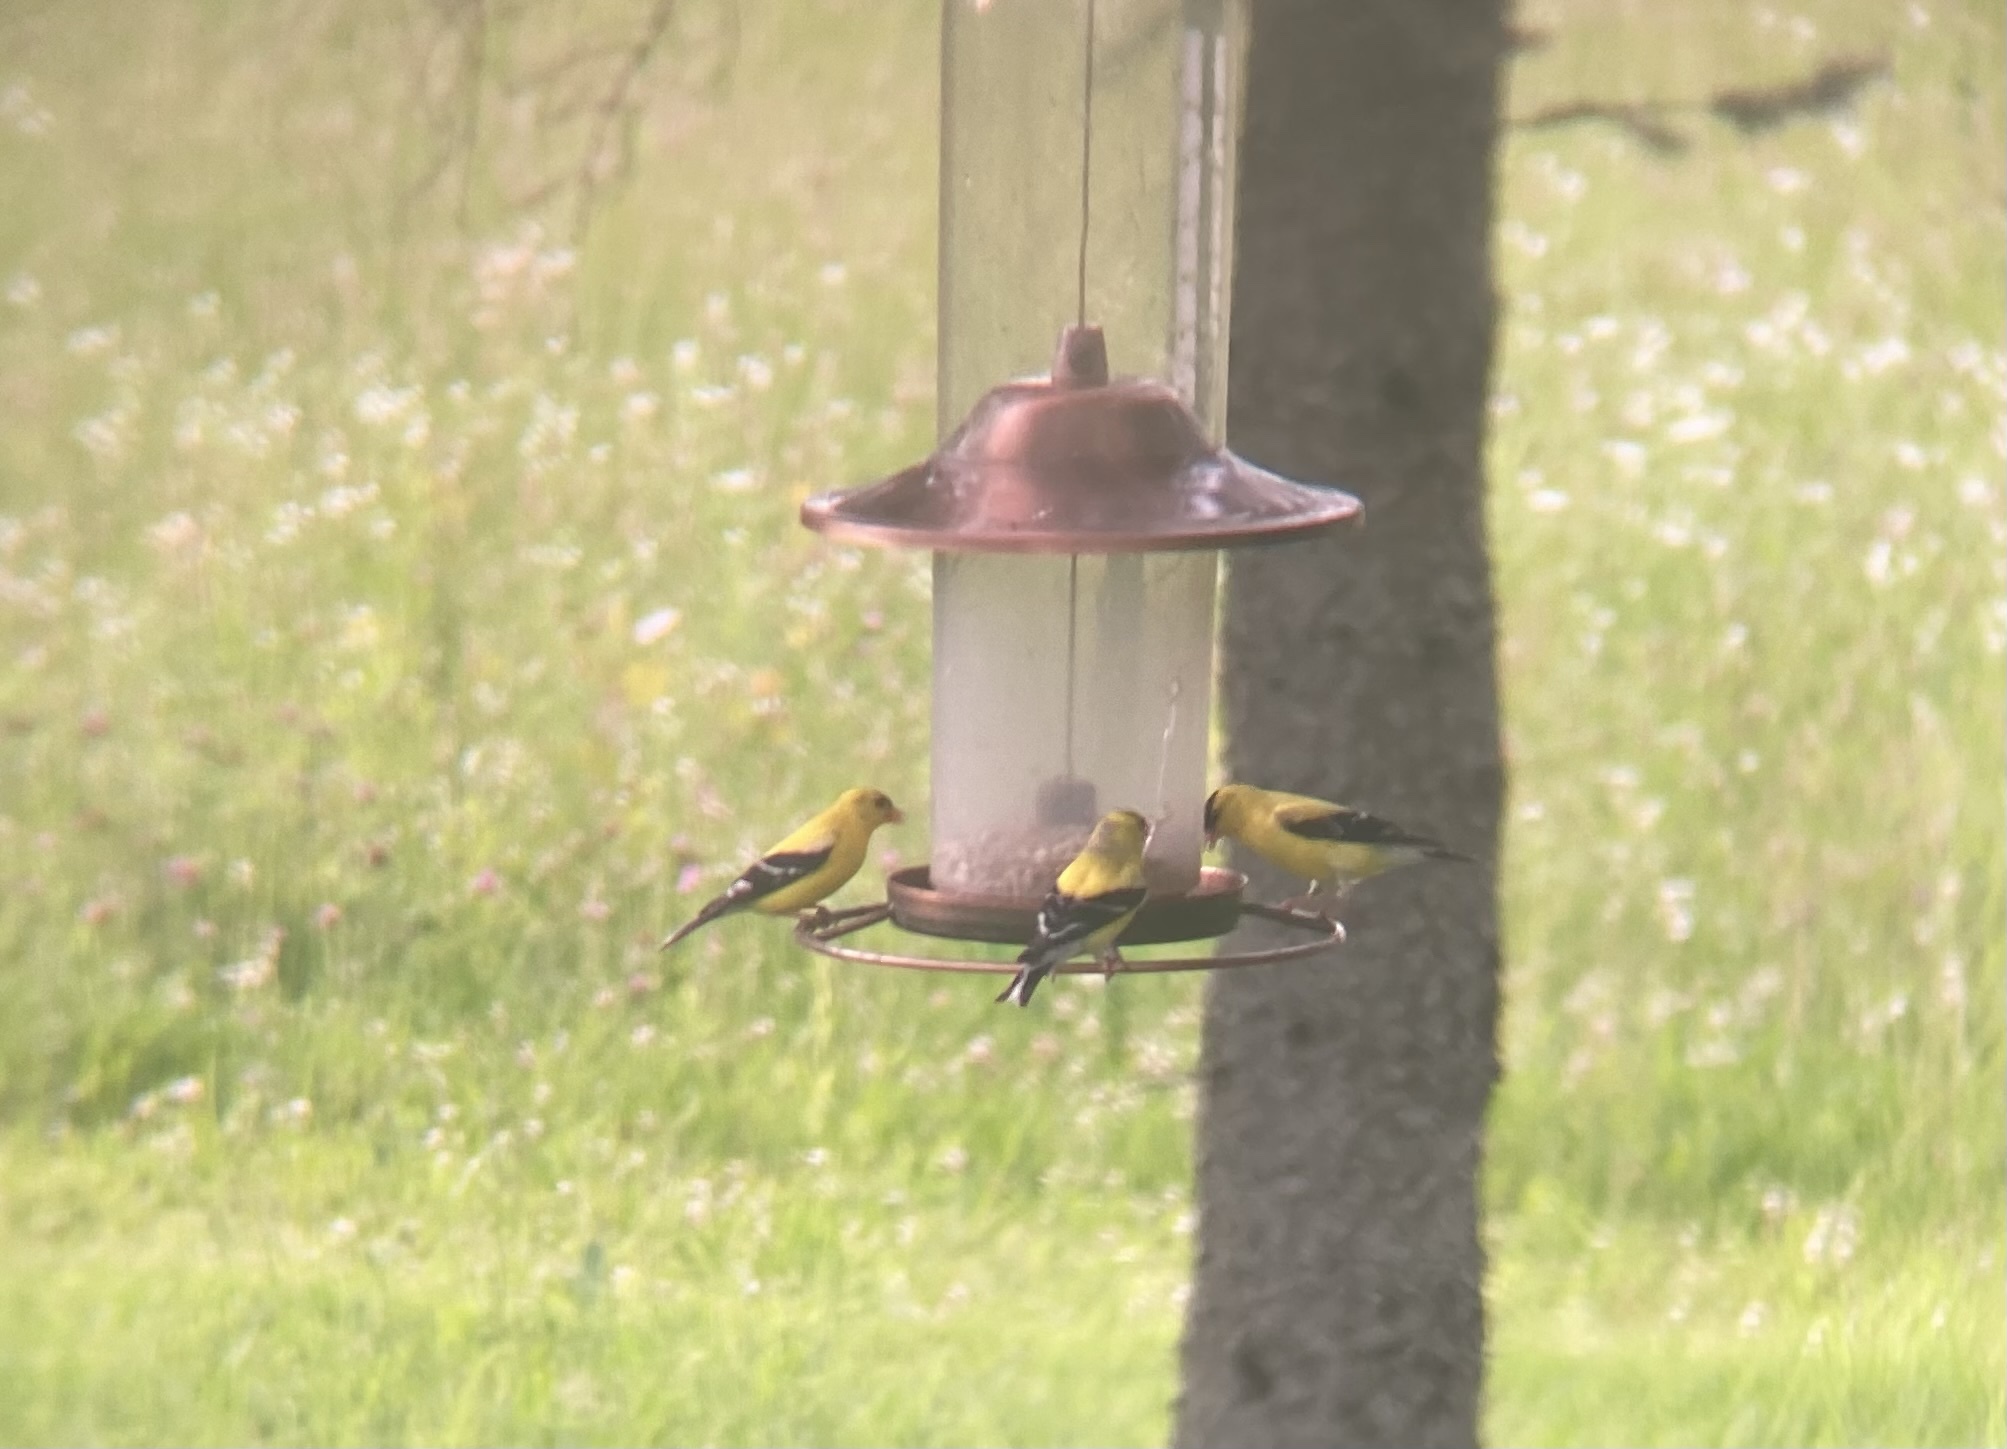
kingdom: Animalia
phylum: Chordata
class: Aves
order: Passeriformes
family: Fringillidae
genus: Spinus
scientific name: Spinus tristis
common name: American goldfinch
